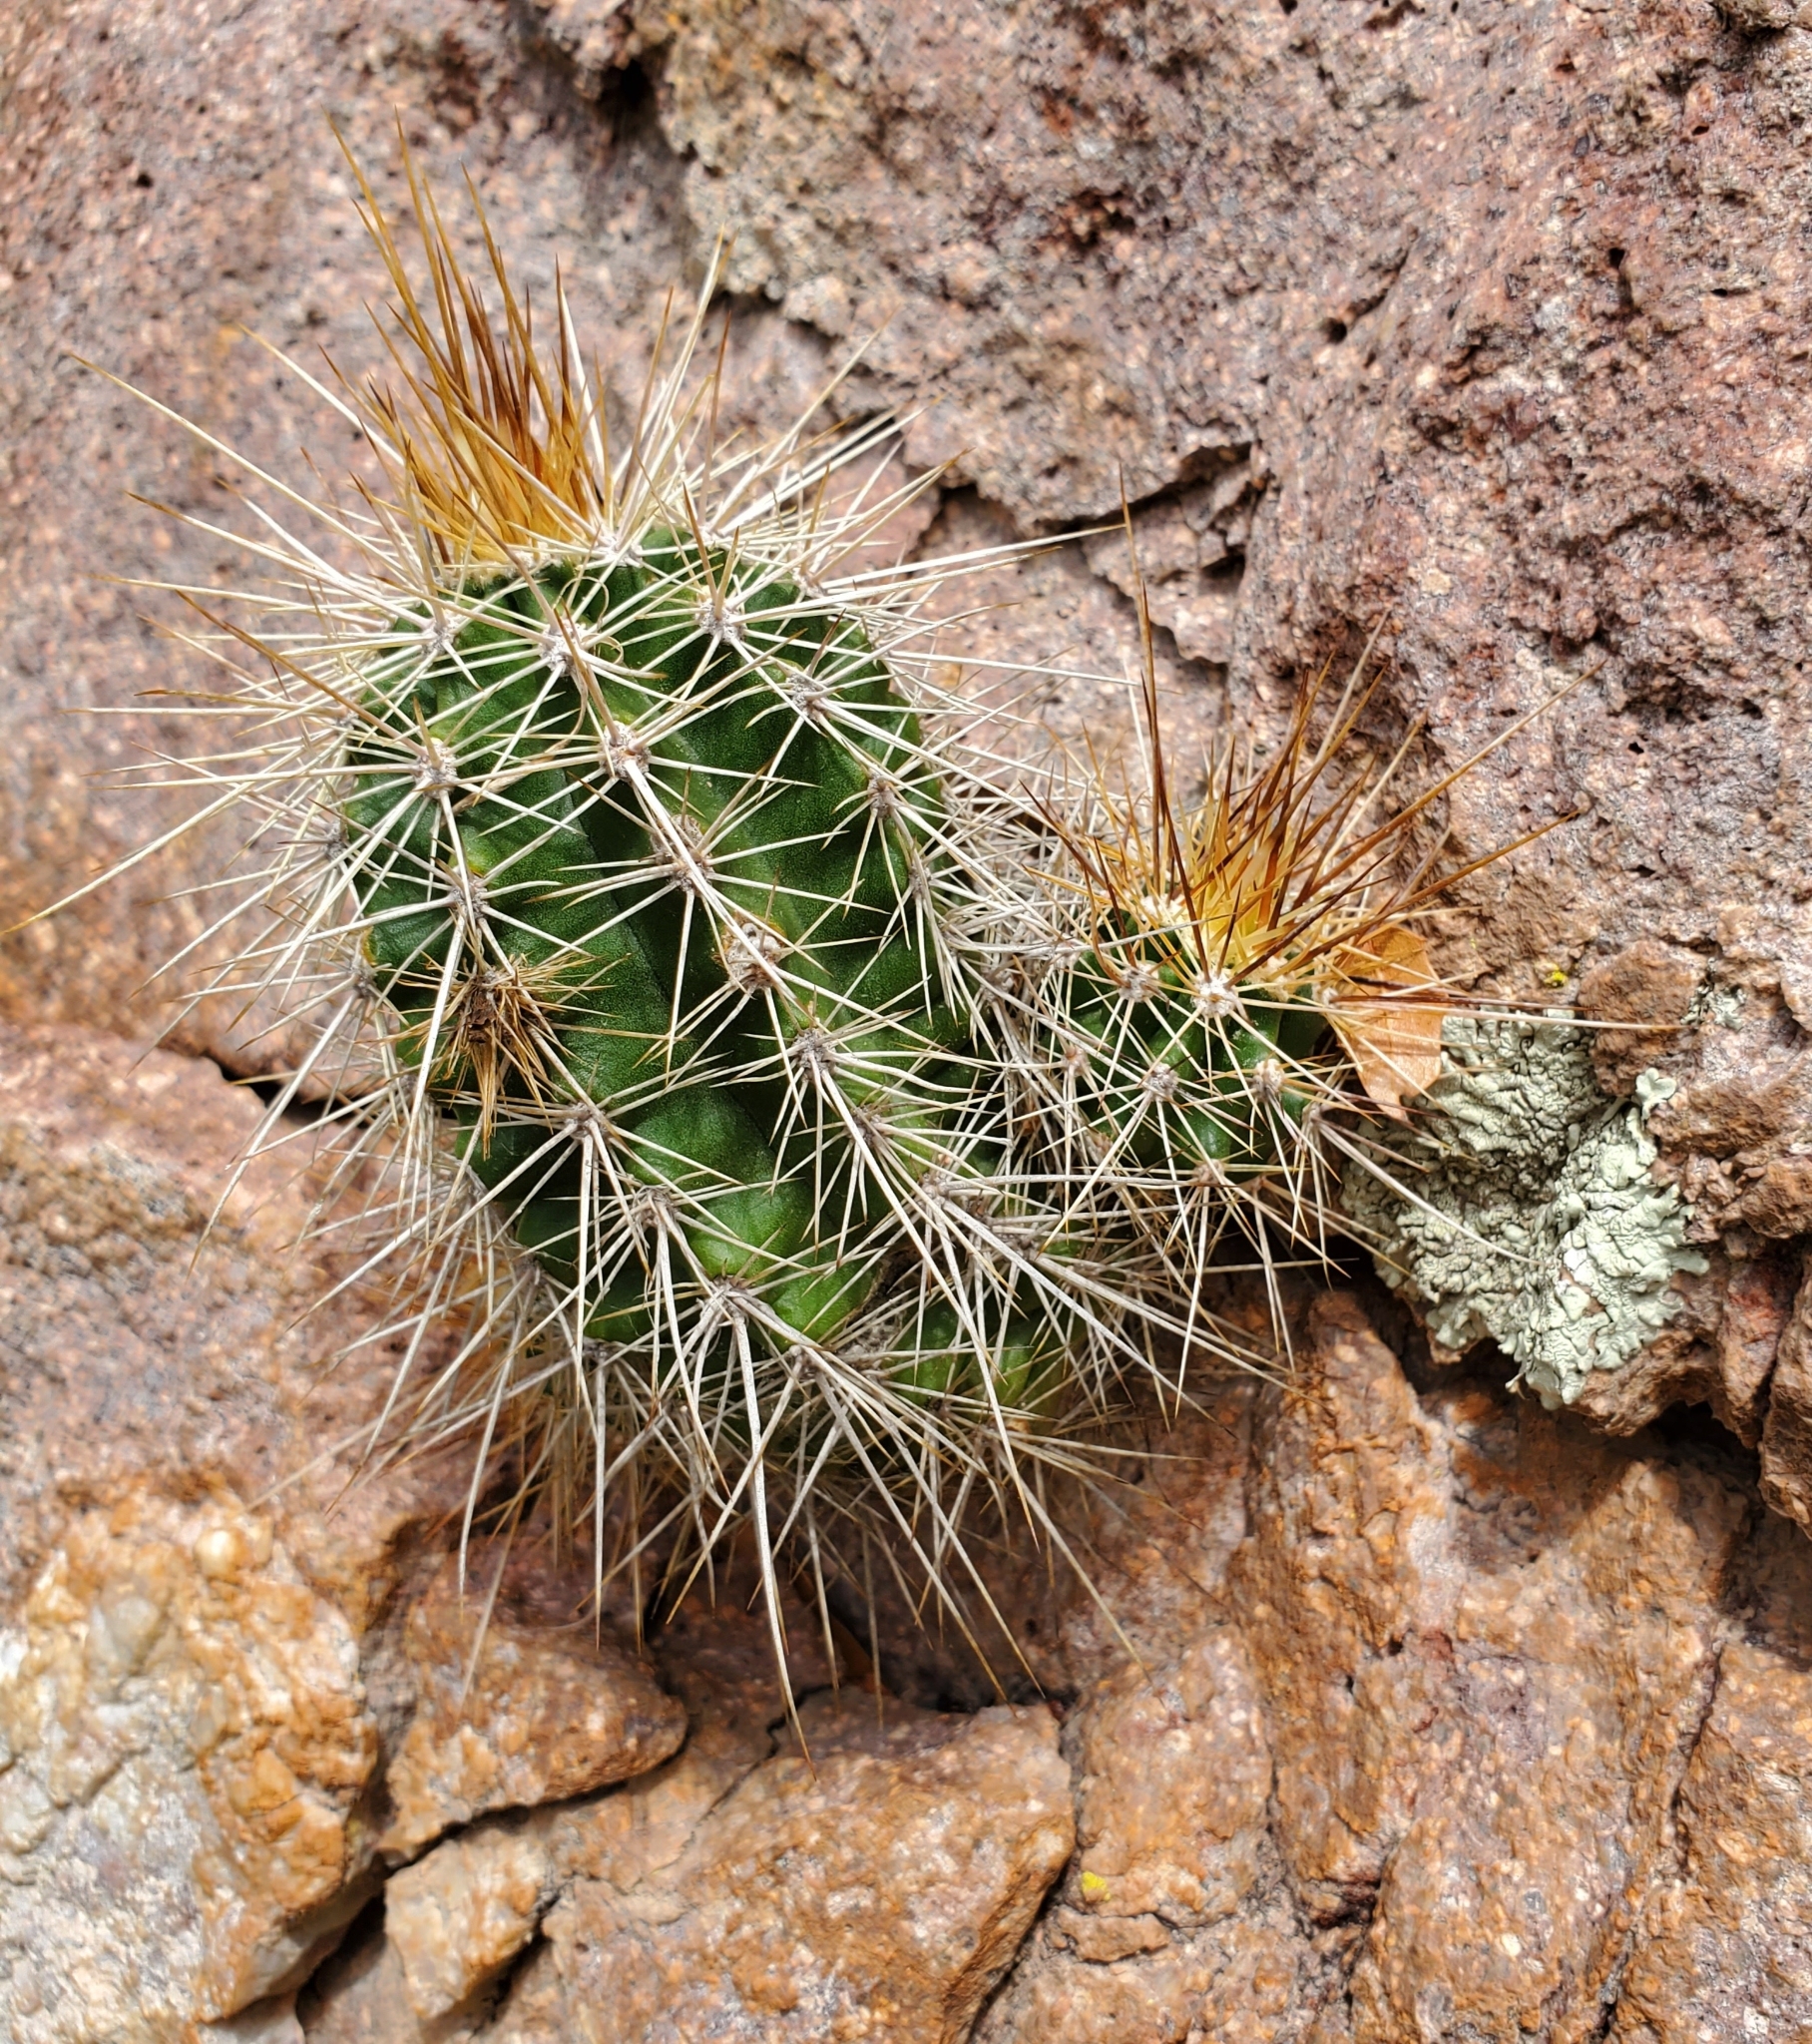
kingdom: Plantae
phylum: Tracheophyta
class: Magnoliopsida
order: Caryophyllales
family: Cactaceae
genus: Echinocereus
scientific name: Echinocereus coccineus
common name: Scarlet hedgehog cactus
